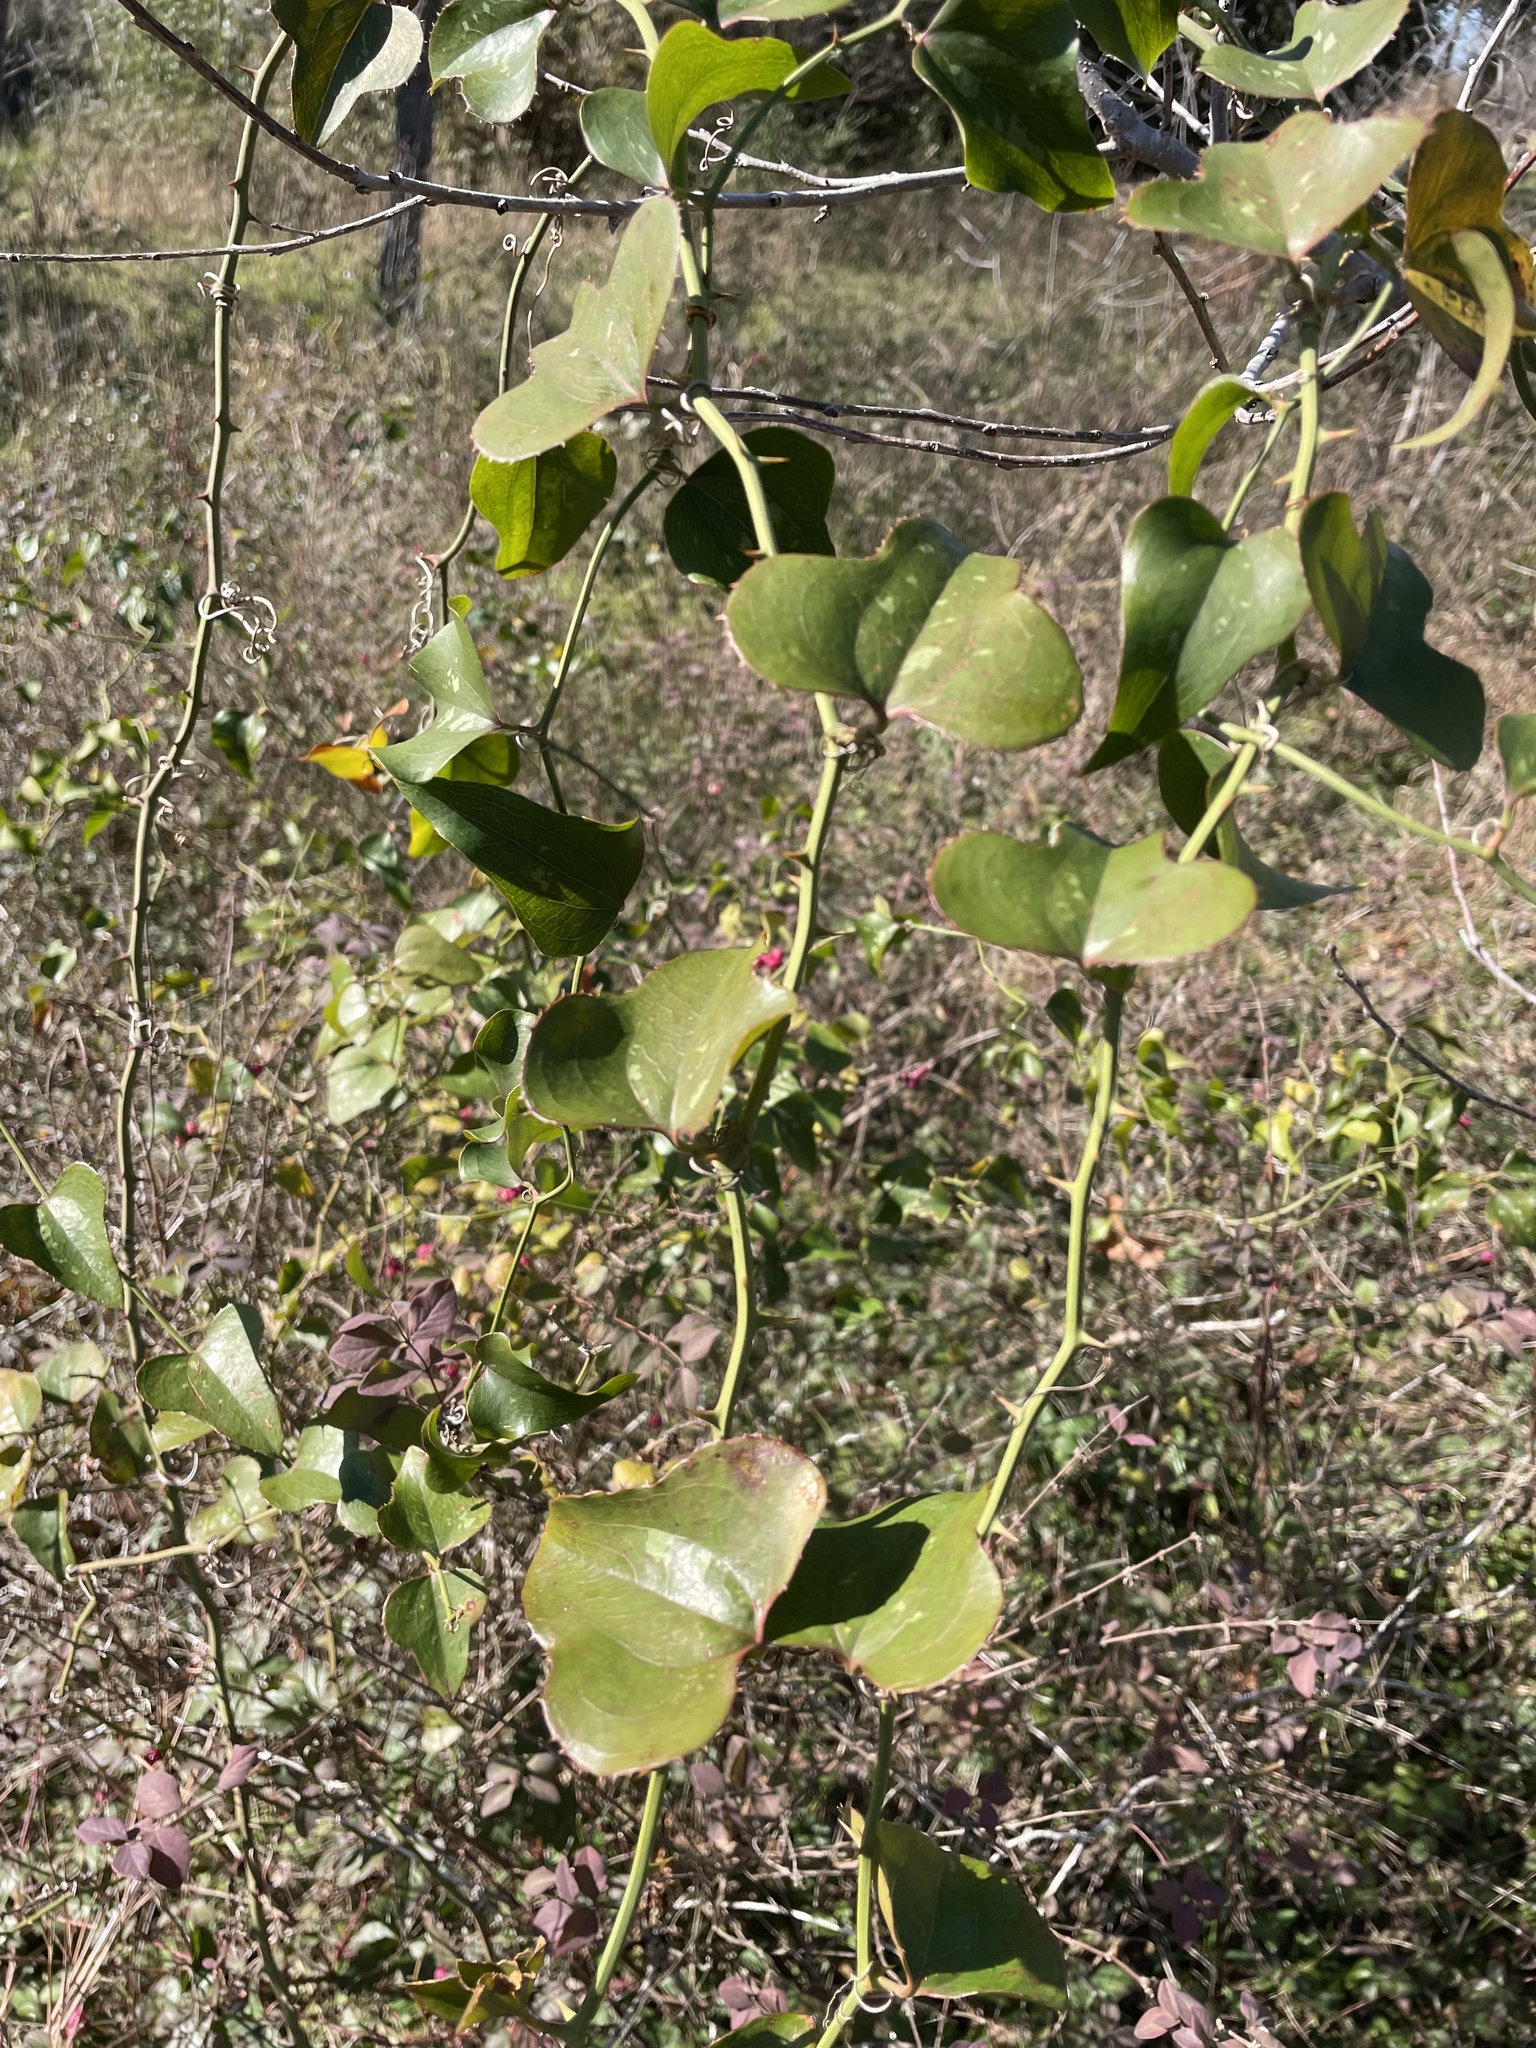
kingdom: Plantae
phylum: Tracheophyta
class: Liliopsida
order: Liliales
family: Smilacaceae
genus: Smilax
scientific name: Smilax bona-nox
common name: Catbrier
